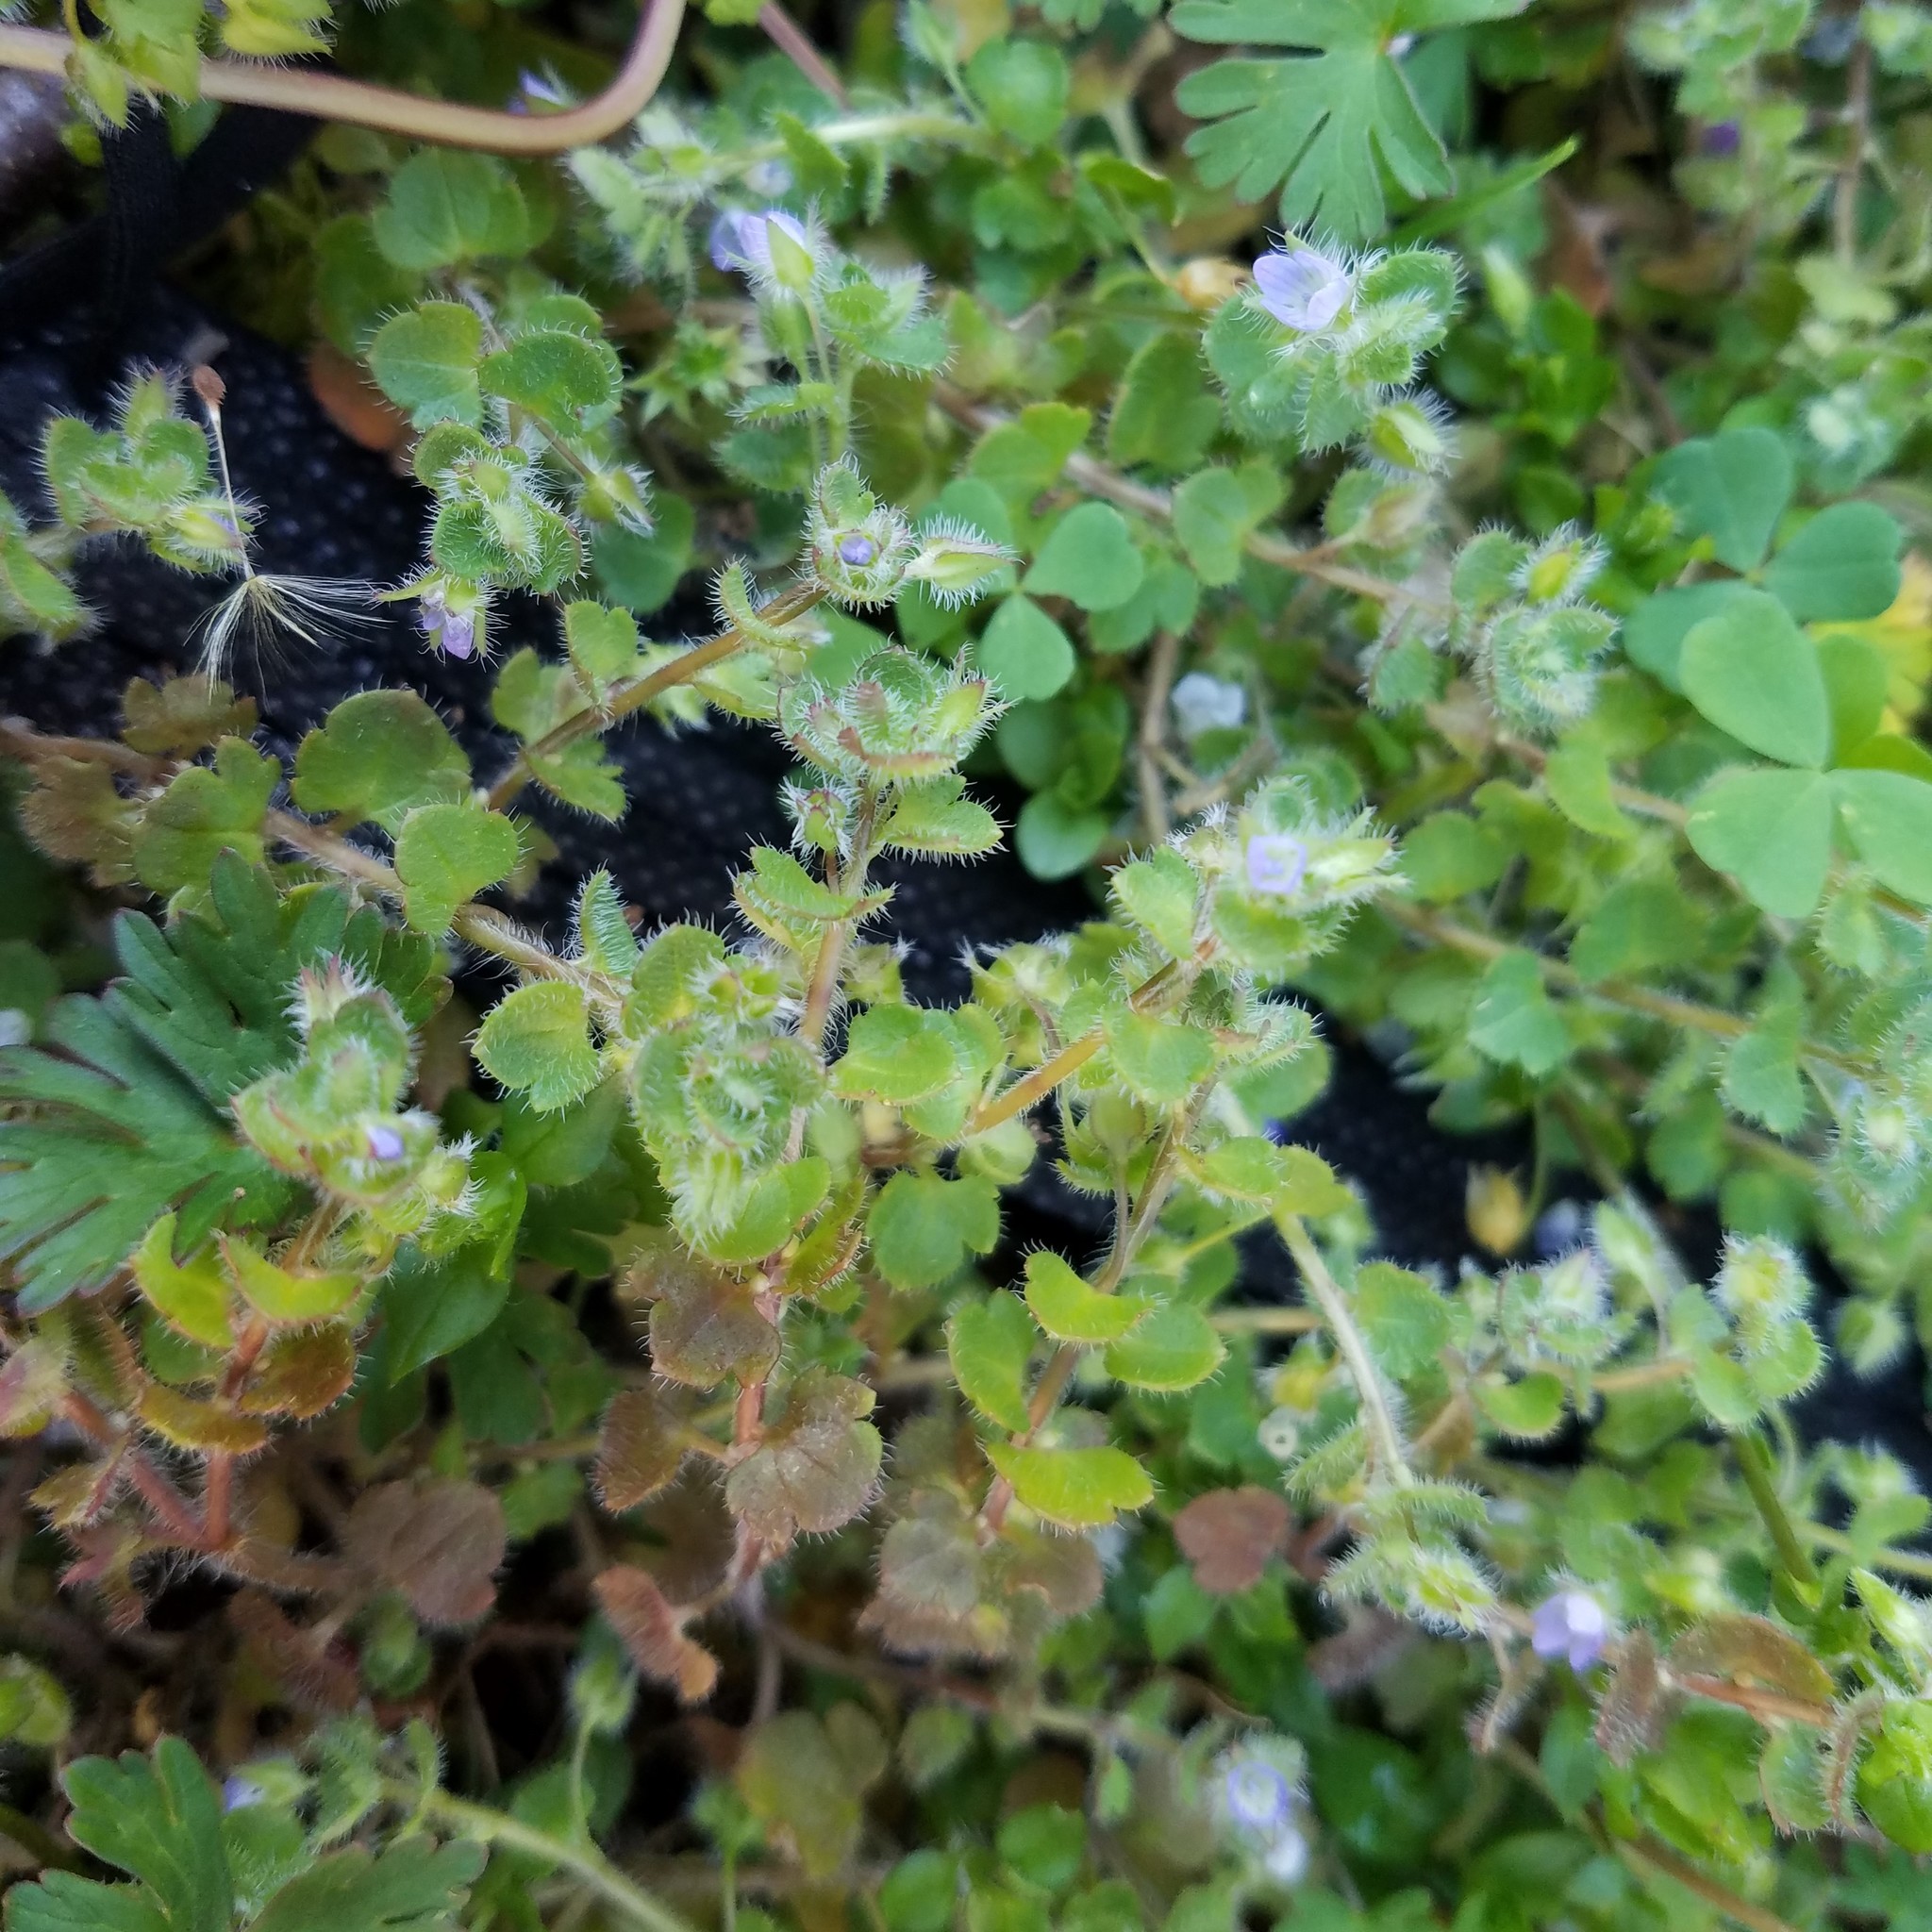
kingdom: Plantae
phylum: Tracheophyta
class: Magnoliopsida
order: Lamiales
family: Plantaginaceae
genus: Veronica
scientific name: Veronica hederifolia
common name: Ivy-leaved speedwell
